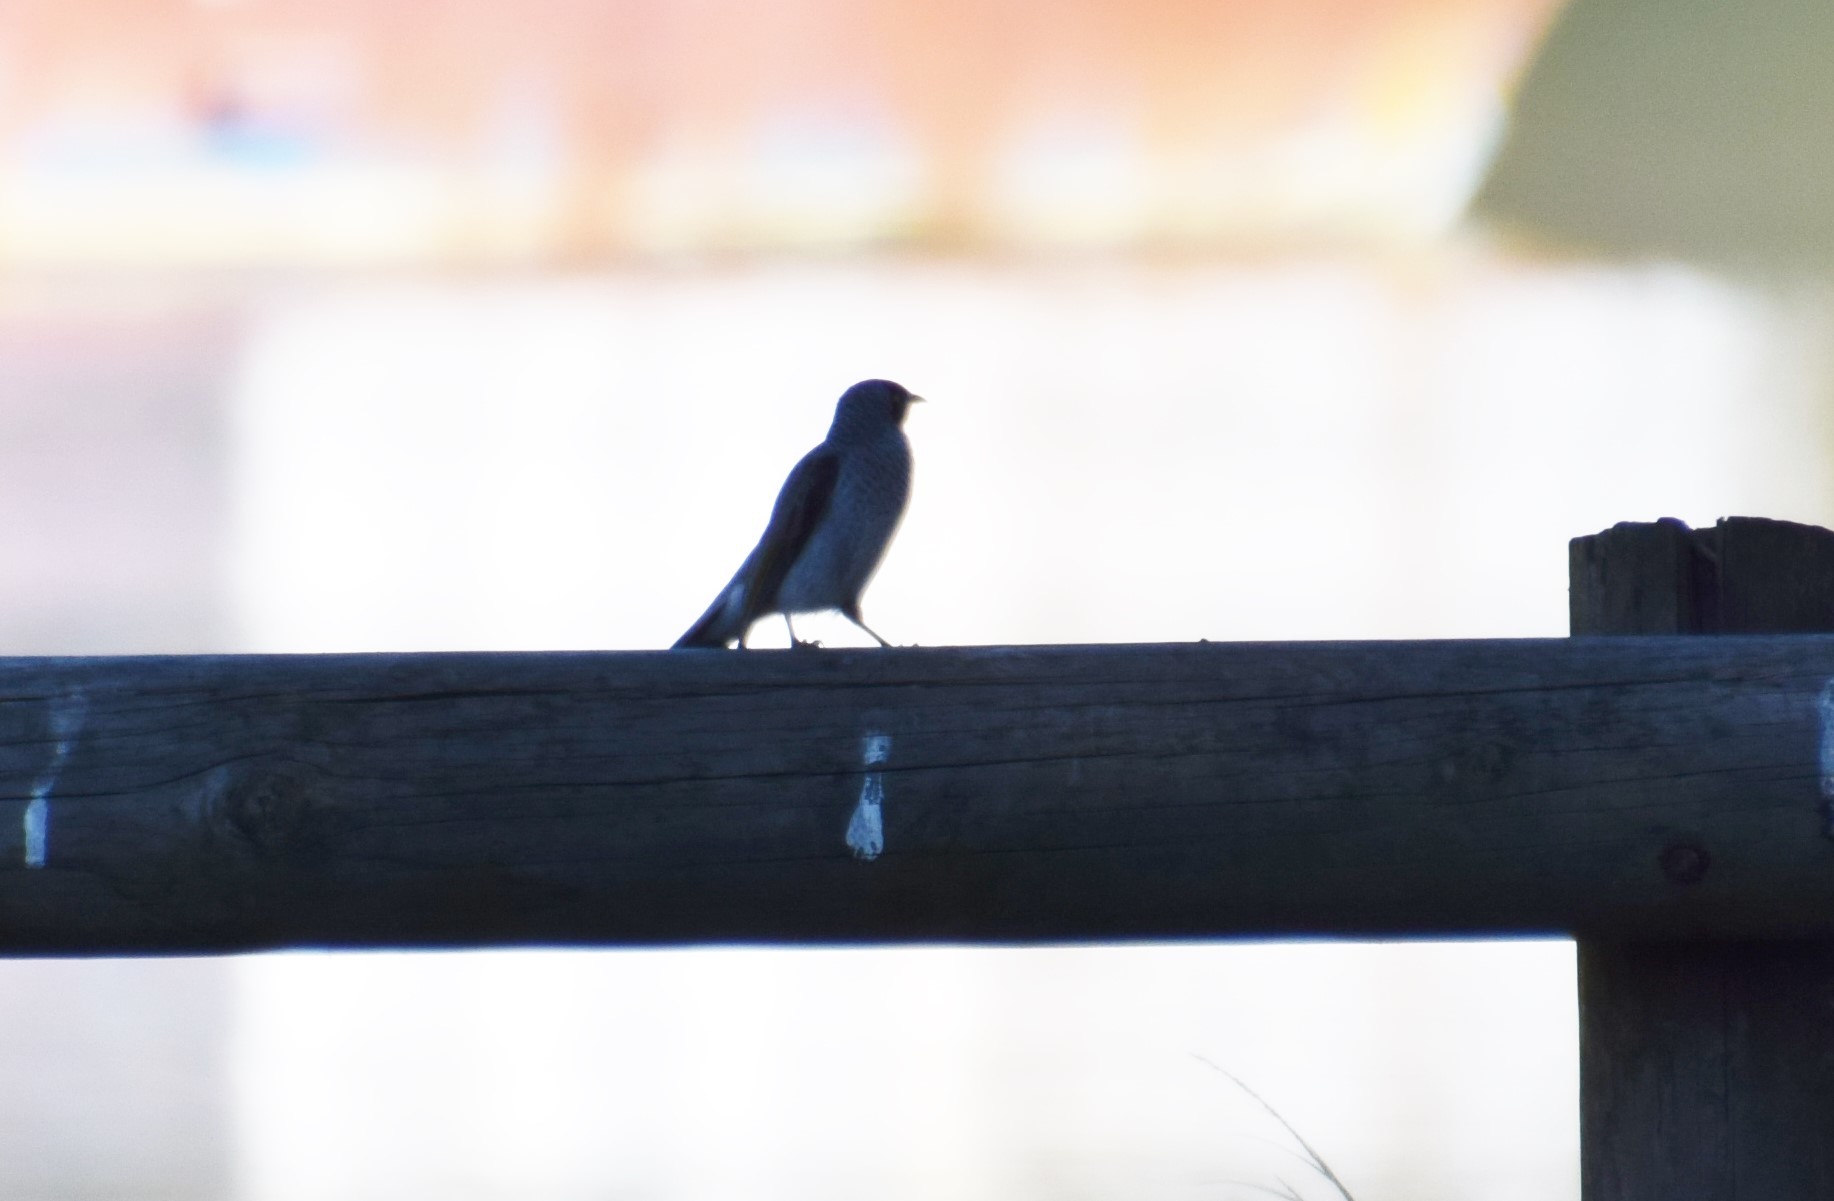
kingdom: Animalia
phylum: Chordata
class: Aves
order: Passeriformes
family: Meliphagidae
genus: Manorina
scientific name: Manorina melanocephala
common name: Noisy miner
